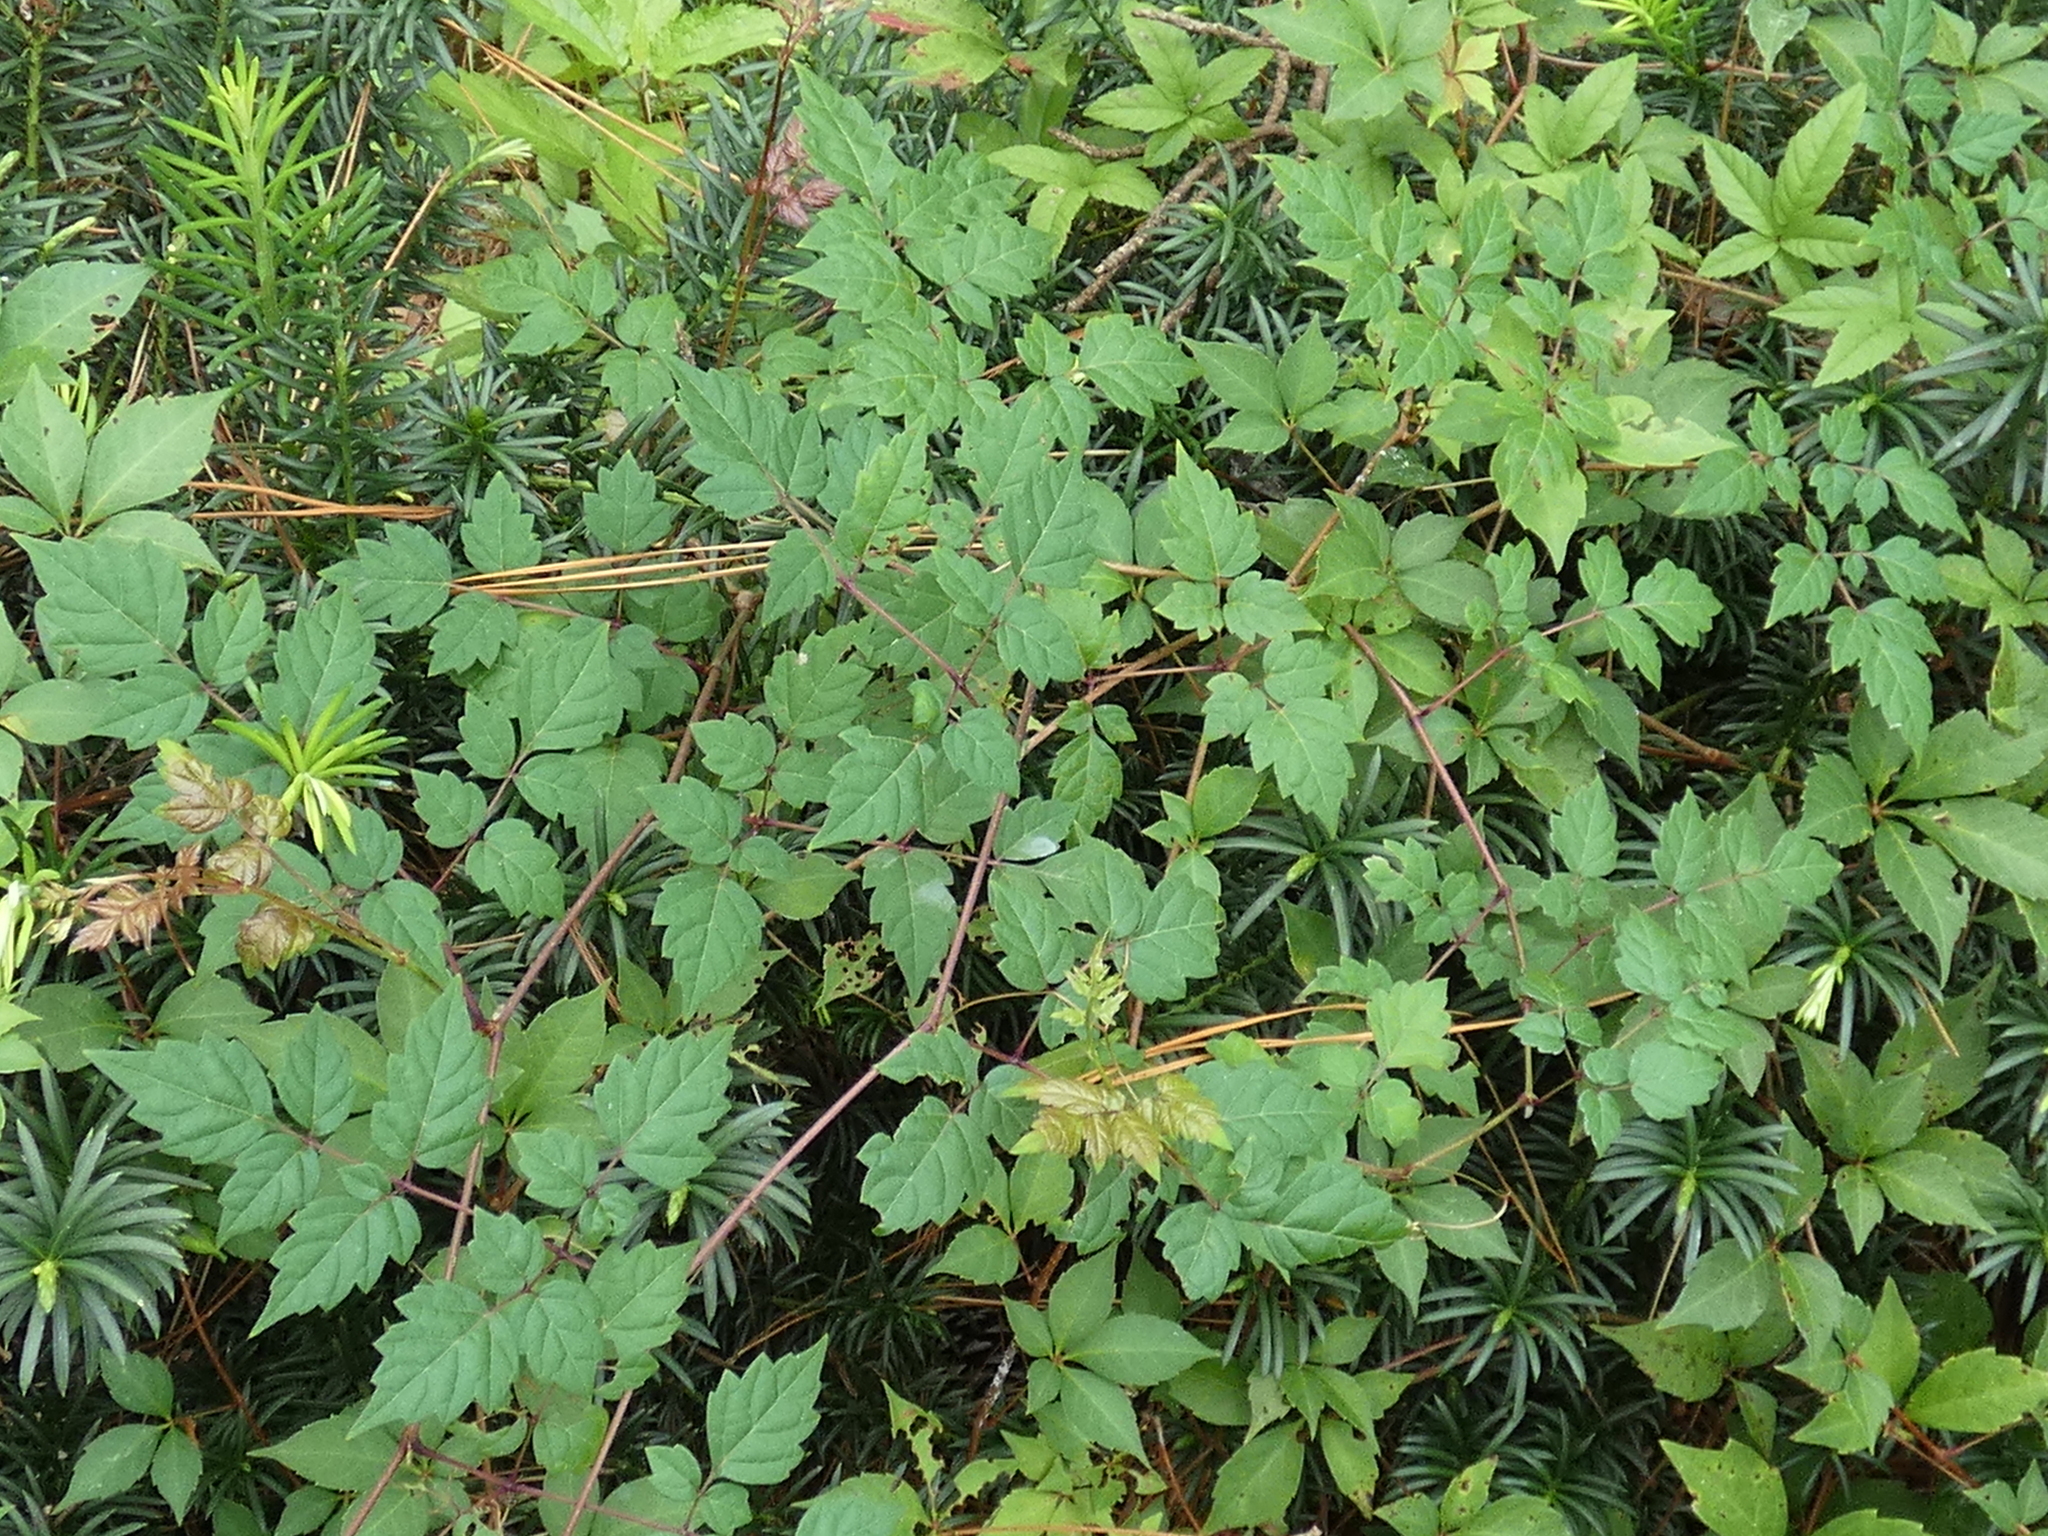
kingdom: Plantae
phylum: Tracheophyta
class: Magnoliopsida
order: Vitales
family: Vitaceae
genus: Nekemias
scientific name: Nekemias arborea
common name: Peppervine
